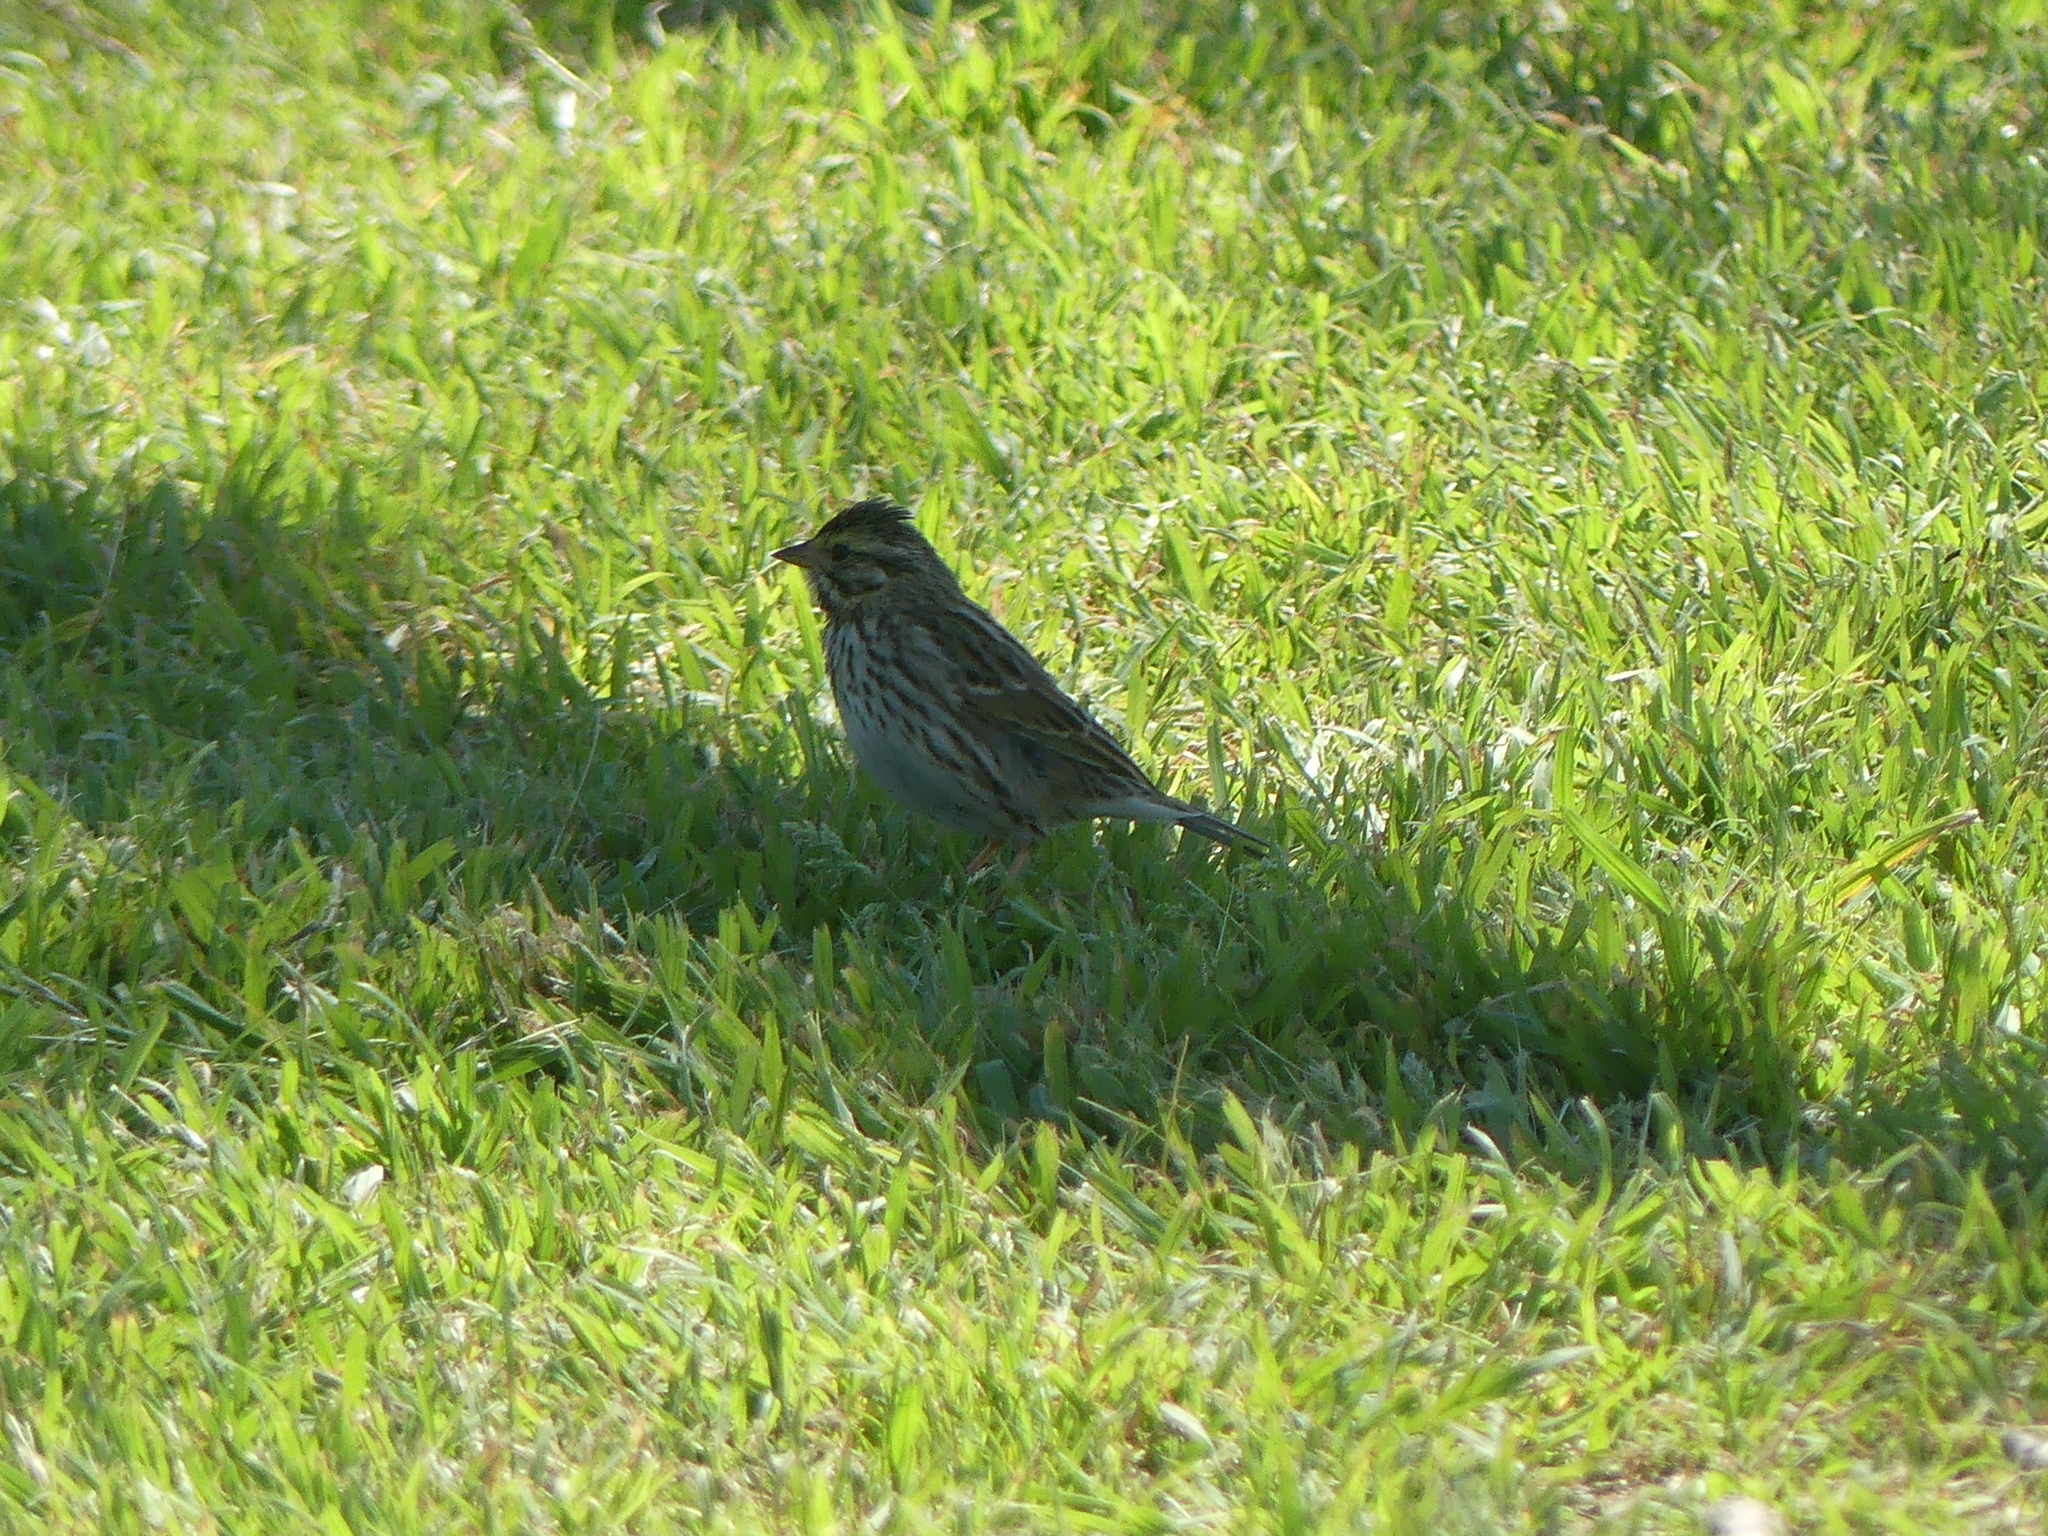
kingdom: Animalia
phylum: Chordata
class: Aves
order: Passeriformes
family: Passerellidae
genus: Passerculus
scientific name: Passerculus sandwichensis
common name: Savannah sparrow
